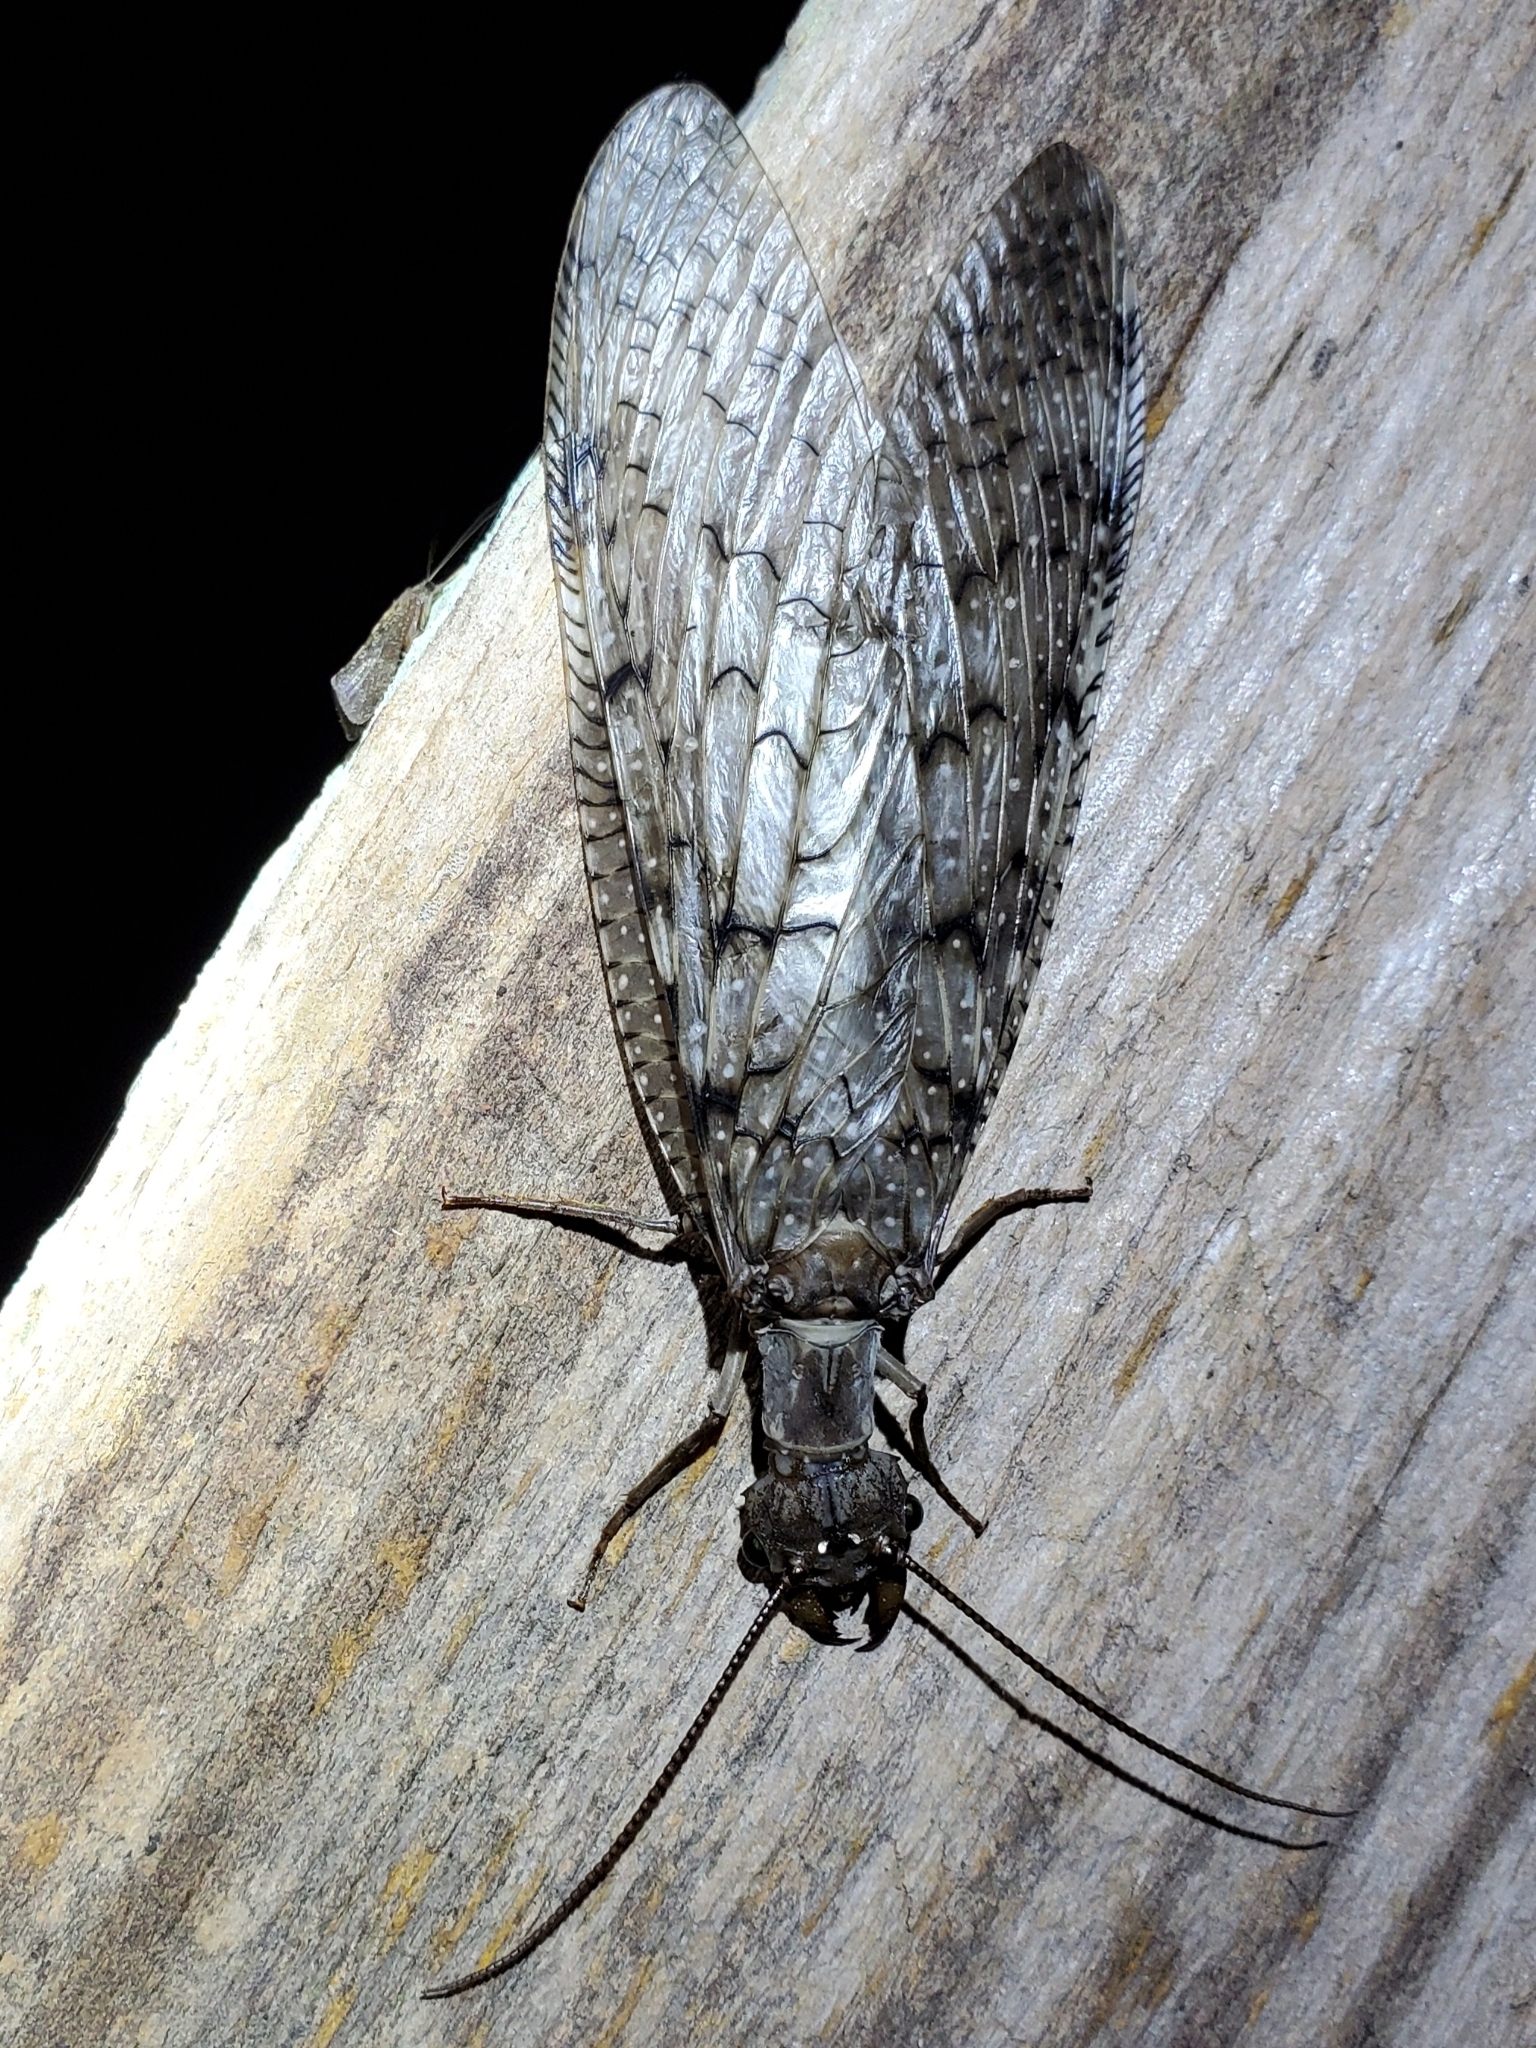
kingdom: Animalia
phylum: Arthropoda
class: Insecta
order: Megaloptera
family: Corydalidae
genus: Corydalus
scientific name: Corydalus cornutus
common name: Dobsonfly
